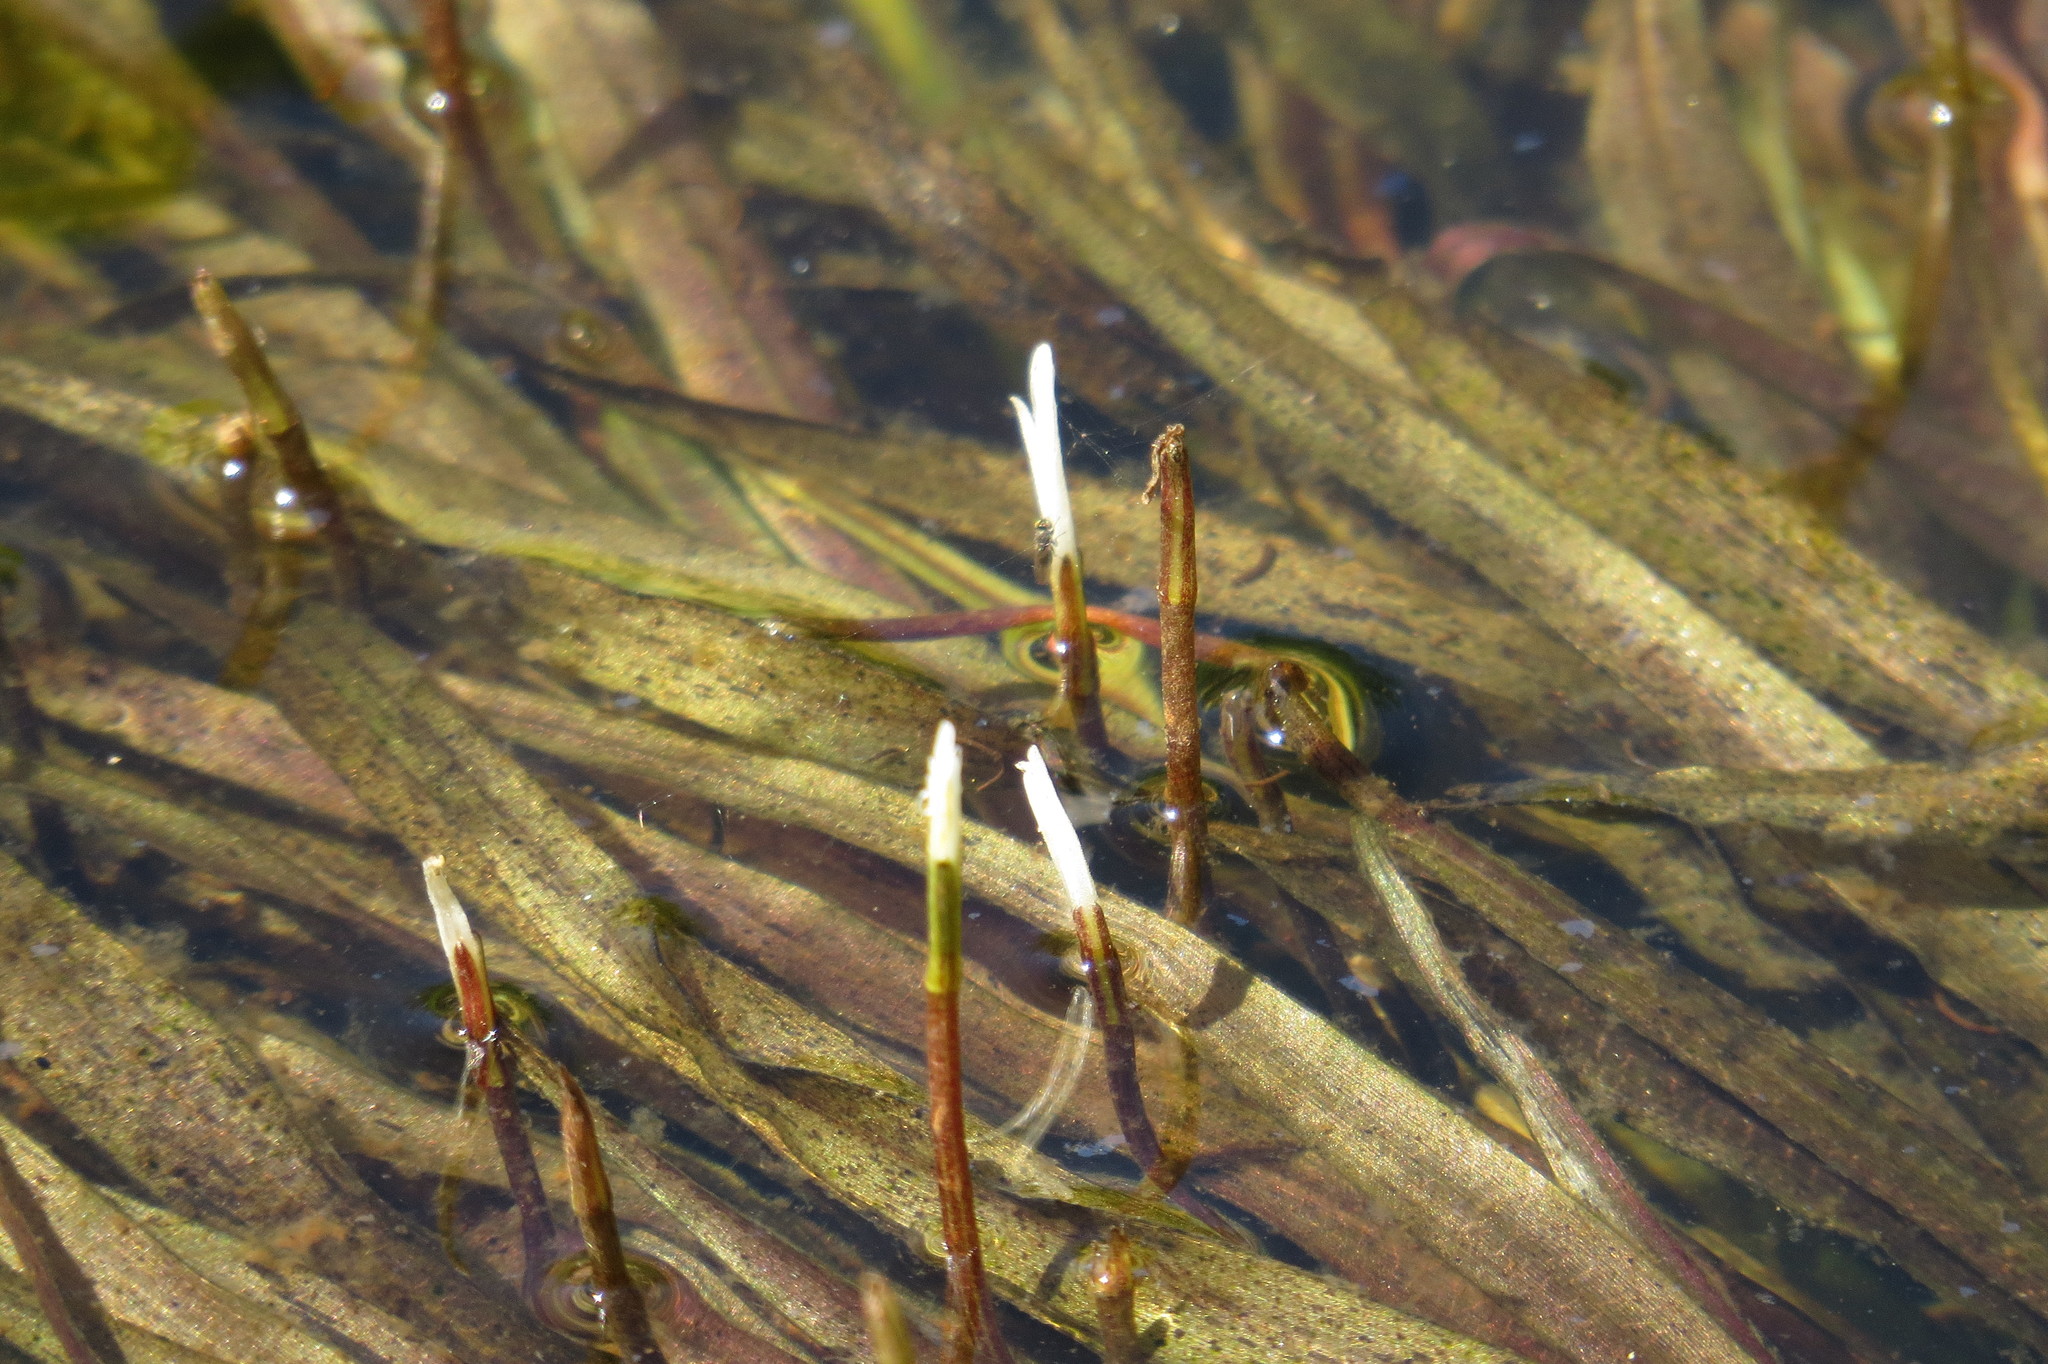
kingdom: Plantae
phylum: Tracheophyta
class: Liliopsida
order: Alismatales
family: Hydrocharitaceae
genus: Blyxa
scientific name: Blyxa aubertii
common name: Roundfruit blyxa
